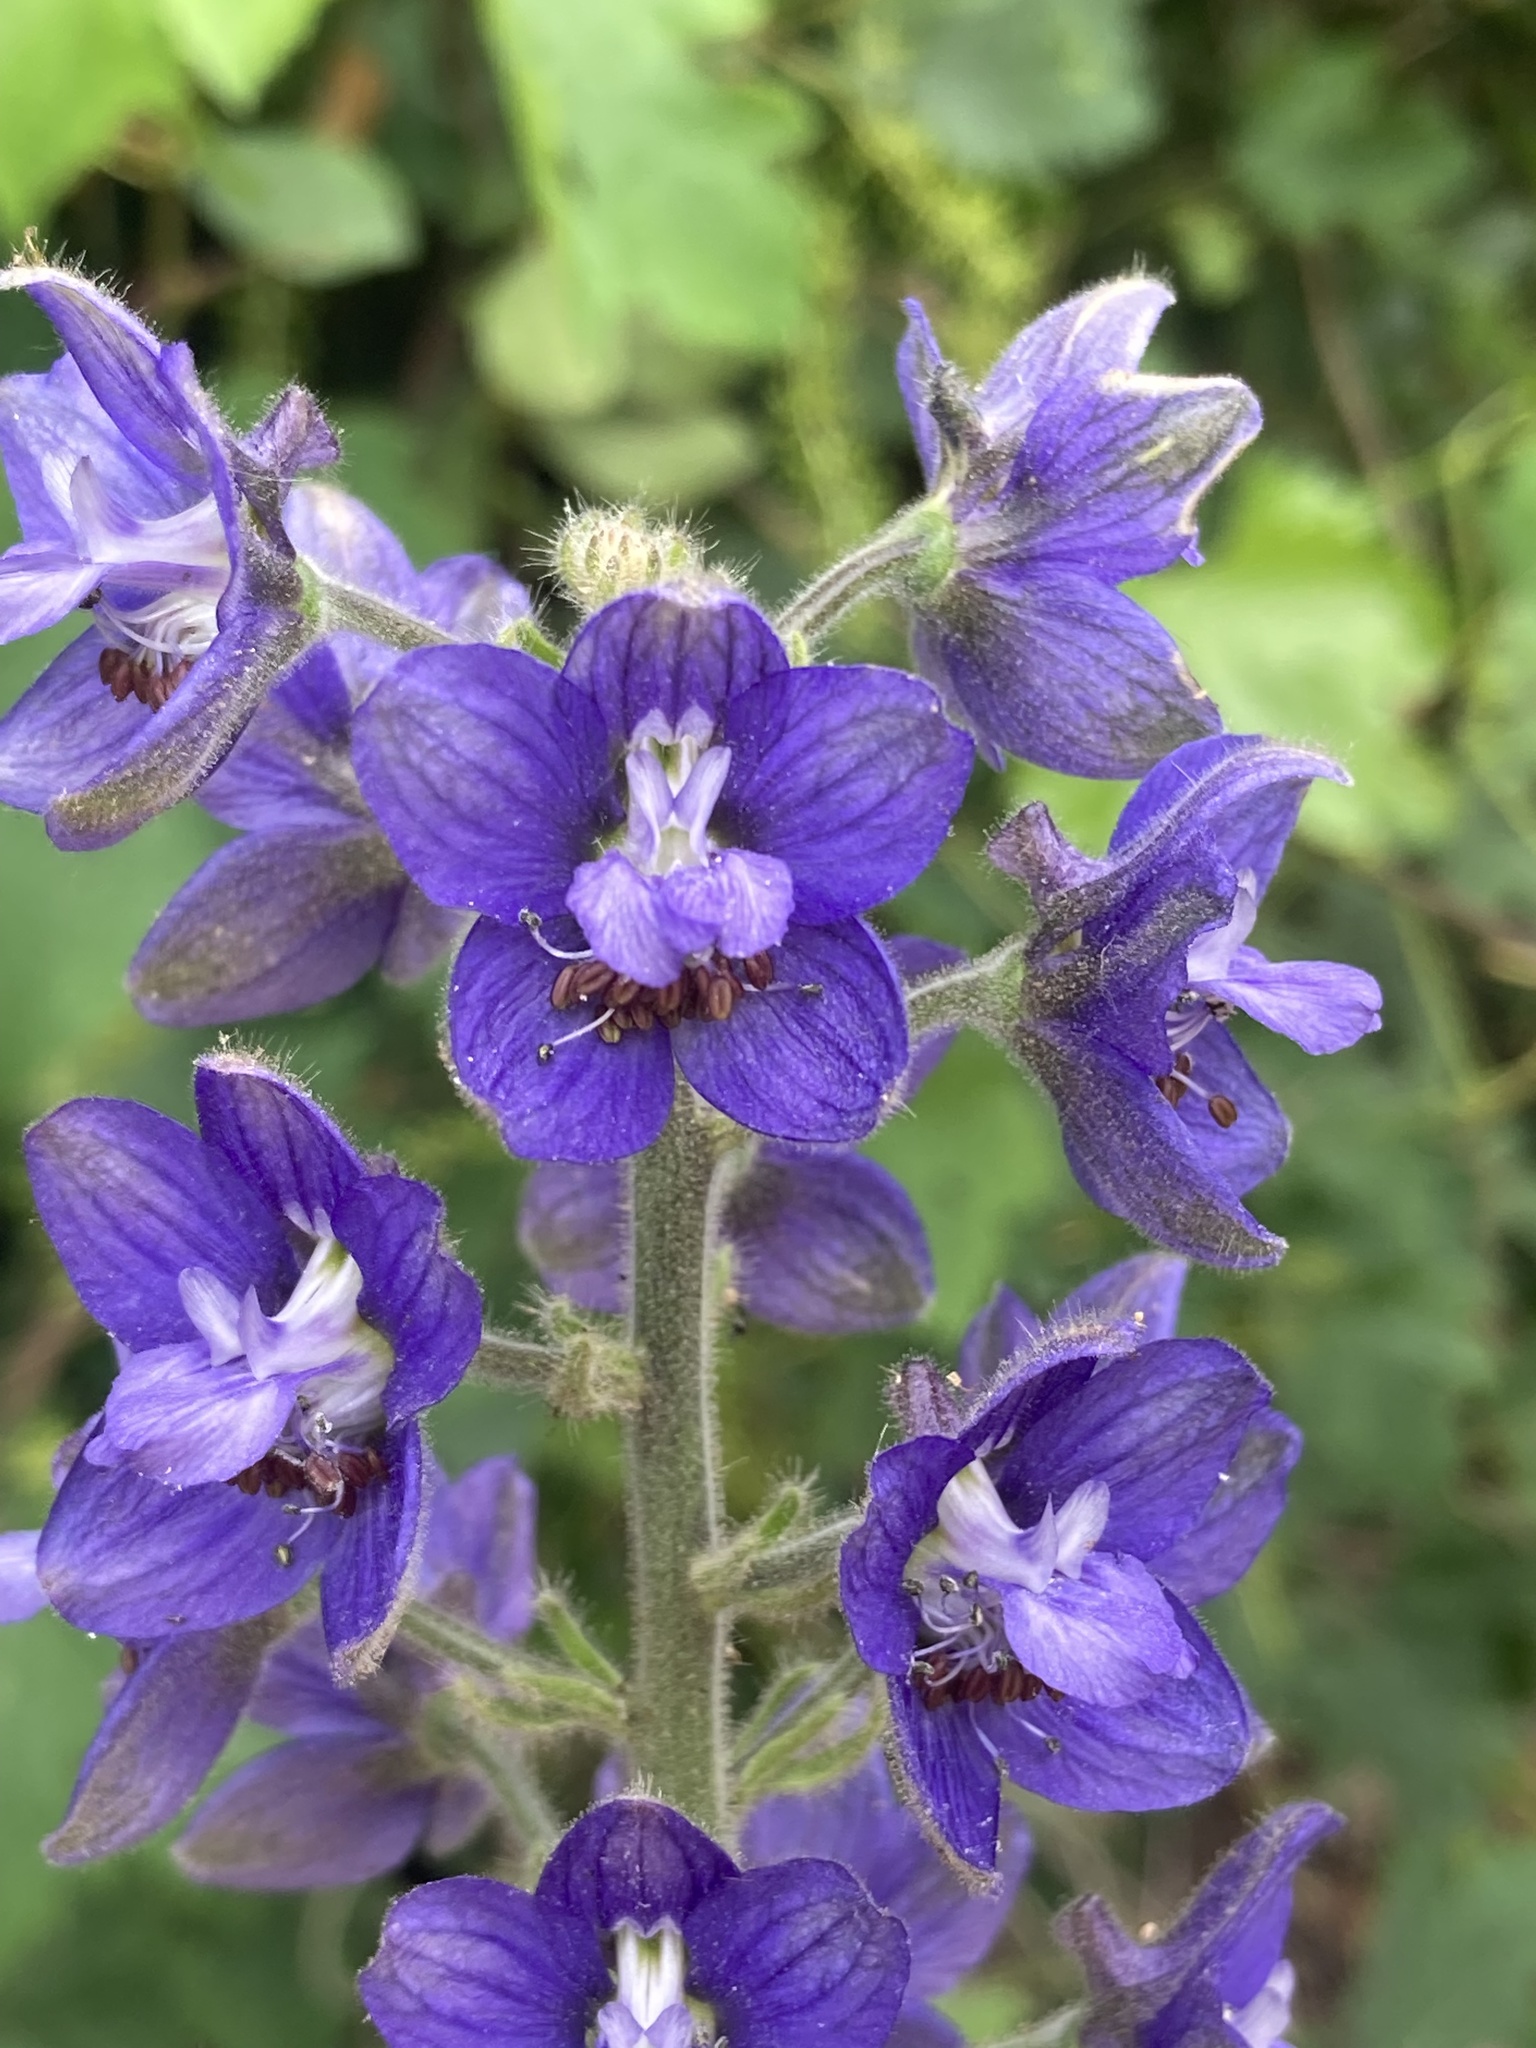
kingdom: Plantae
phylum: Tracheophyta
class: Magnoliopsida
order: Ranunculales
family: Ranunculaceae
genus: Staphisagria
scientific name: Staphisagria macrosperma
